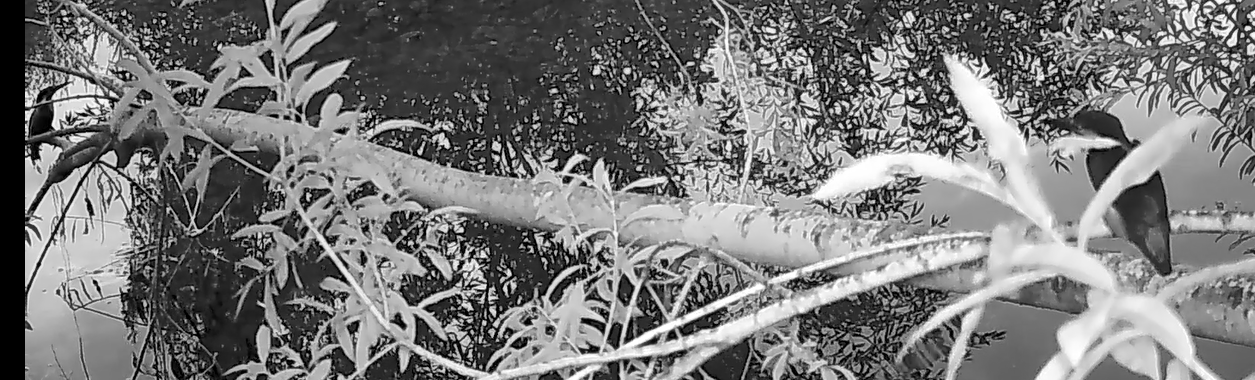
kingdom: Animalia
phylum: Chordata
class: Aves
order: Coraciiformes
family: Alcedinidae
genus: Alcedo
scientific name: Alcedo atthis
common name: Common kingfisher
